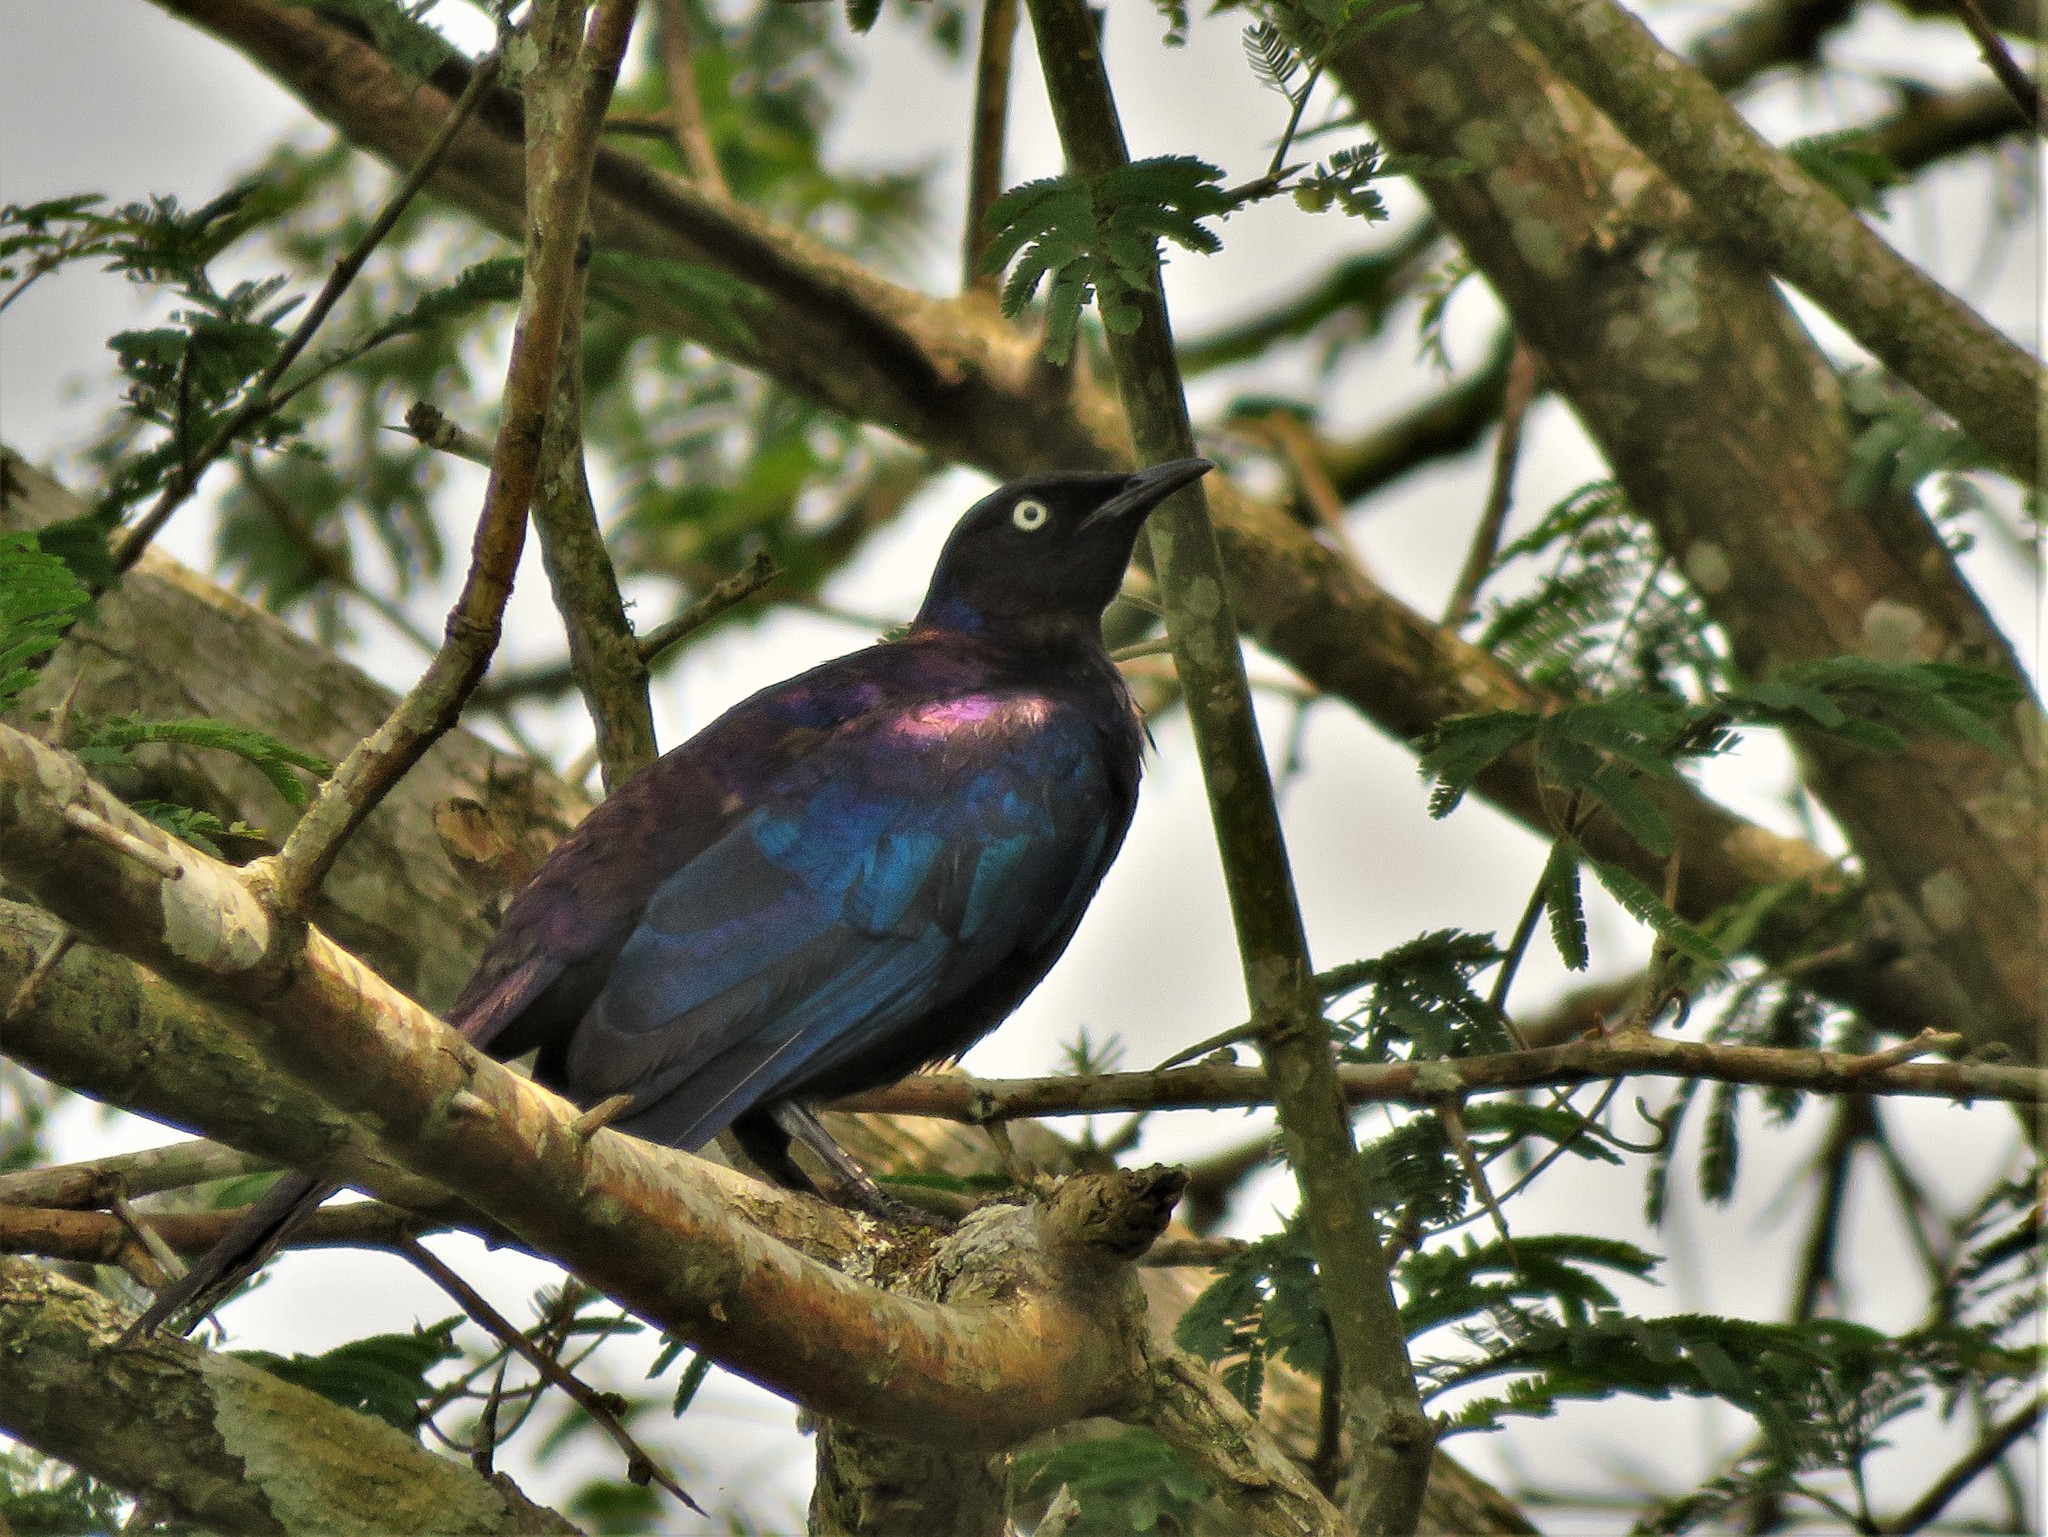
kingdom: Animalia
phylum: Chordata
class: Aves
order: Passeriformes
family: Sturnidae
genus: Lamprotornis
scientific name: Lamprotornis purpuroptera
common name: Rüppell's starling
